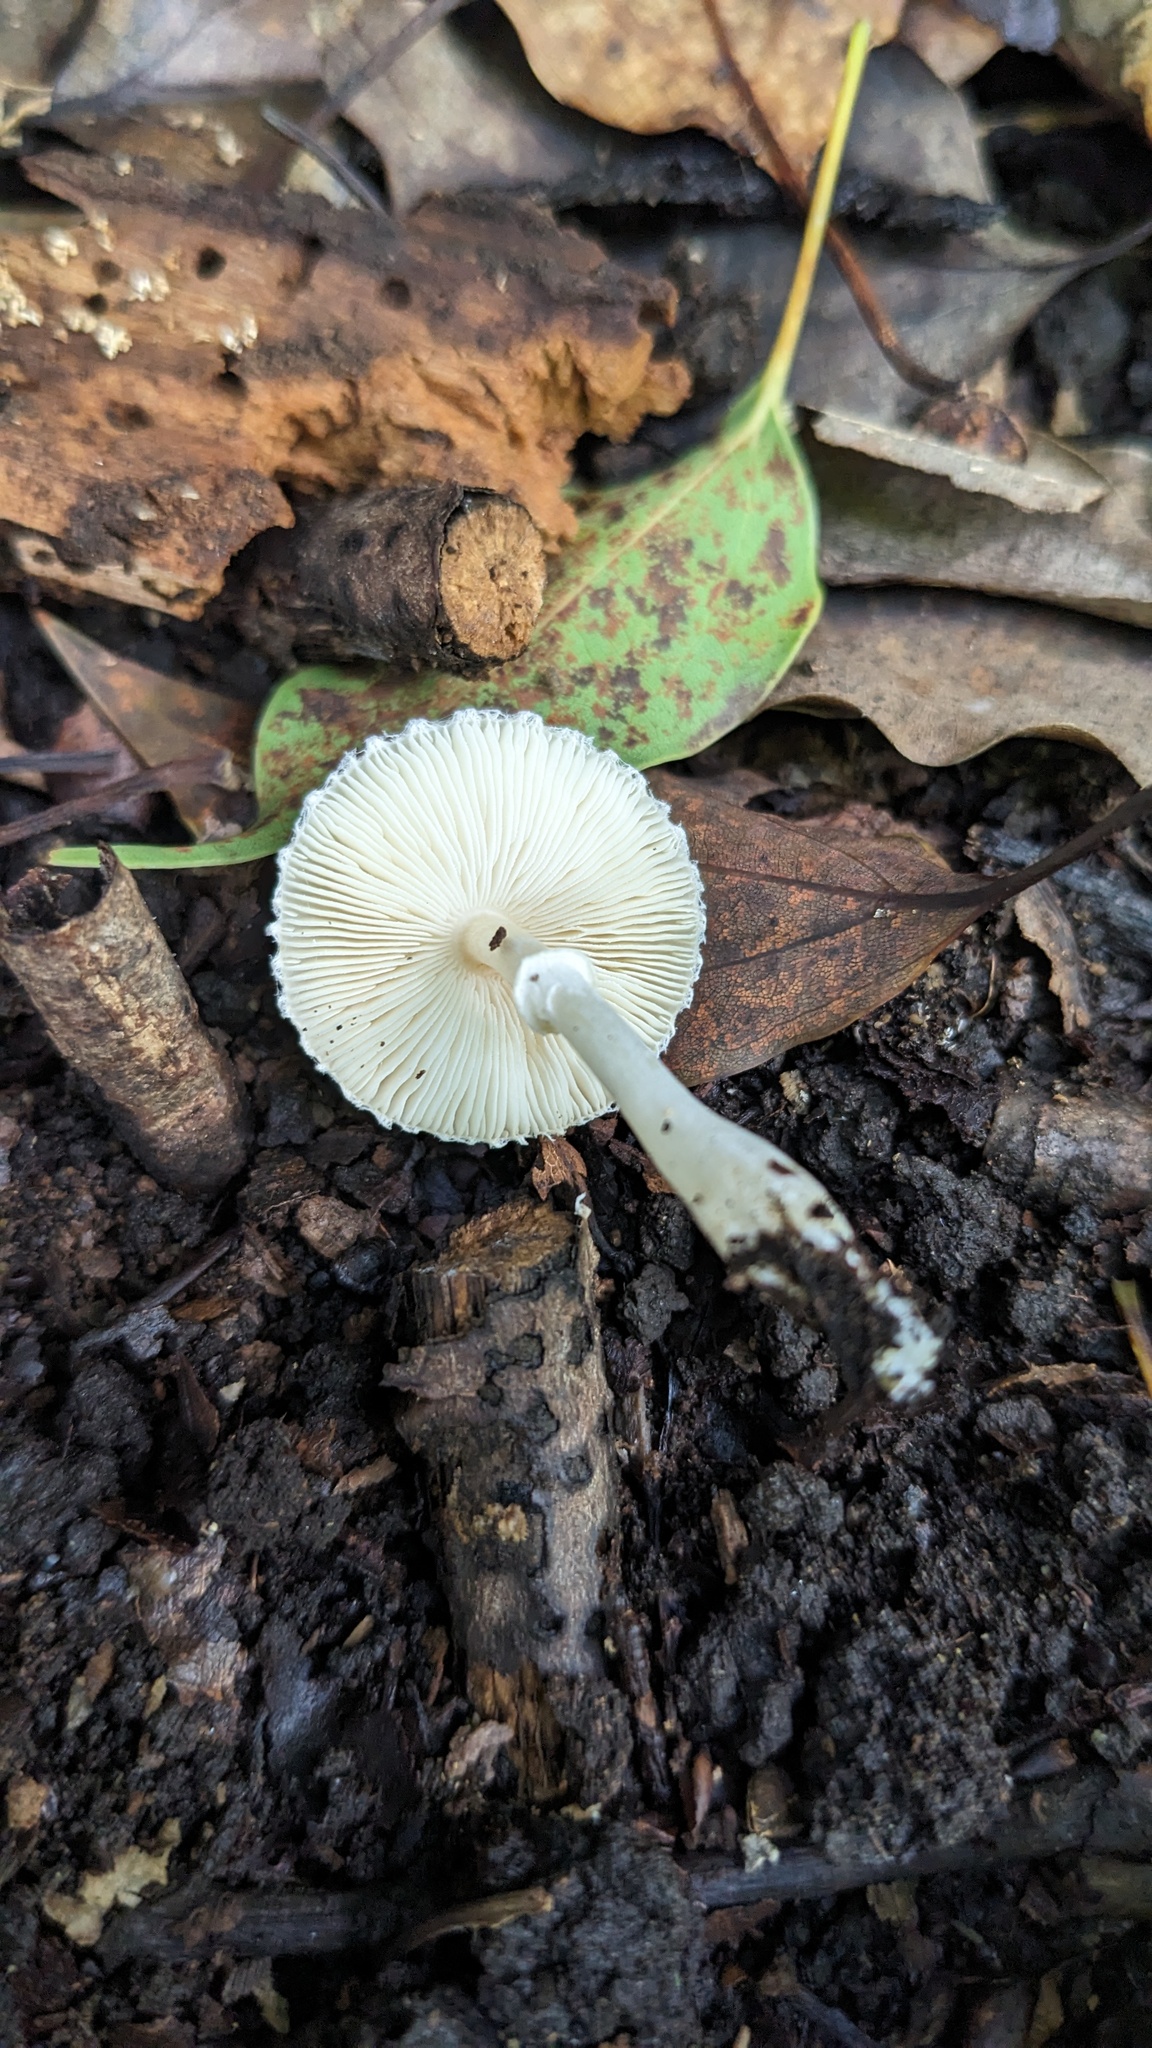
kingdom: Fungi
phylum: Basidiomycota
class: Agaricomycetes
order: Agaricales
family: Agaricaceae
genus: Leucoagaricus
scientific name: Leucoagaricus rubrotinctus
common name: Ruby dapperling
